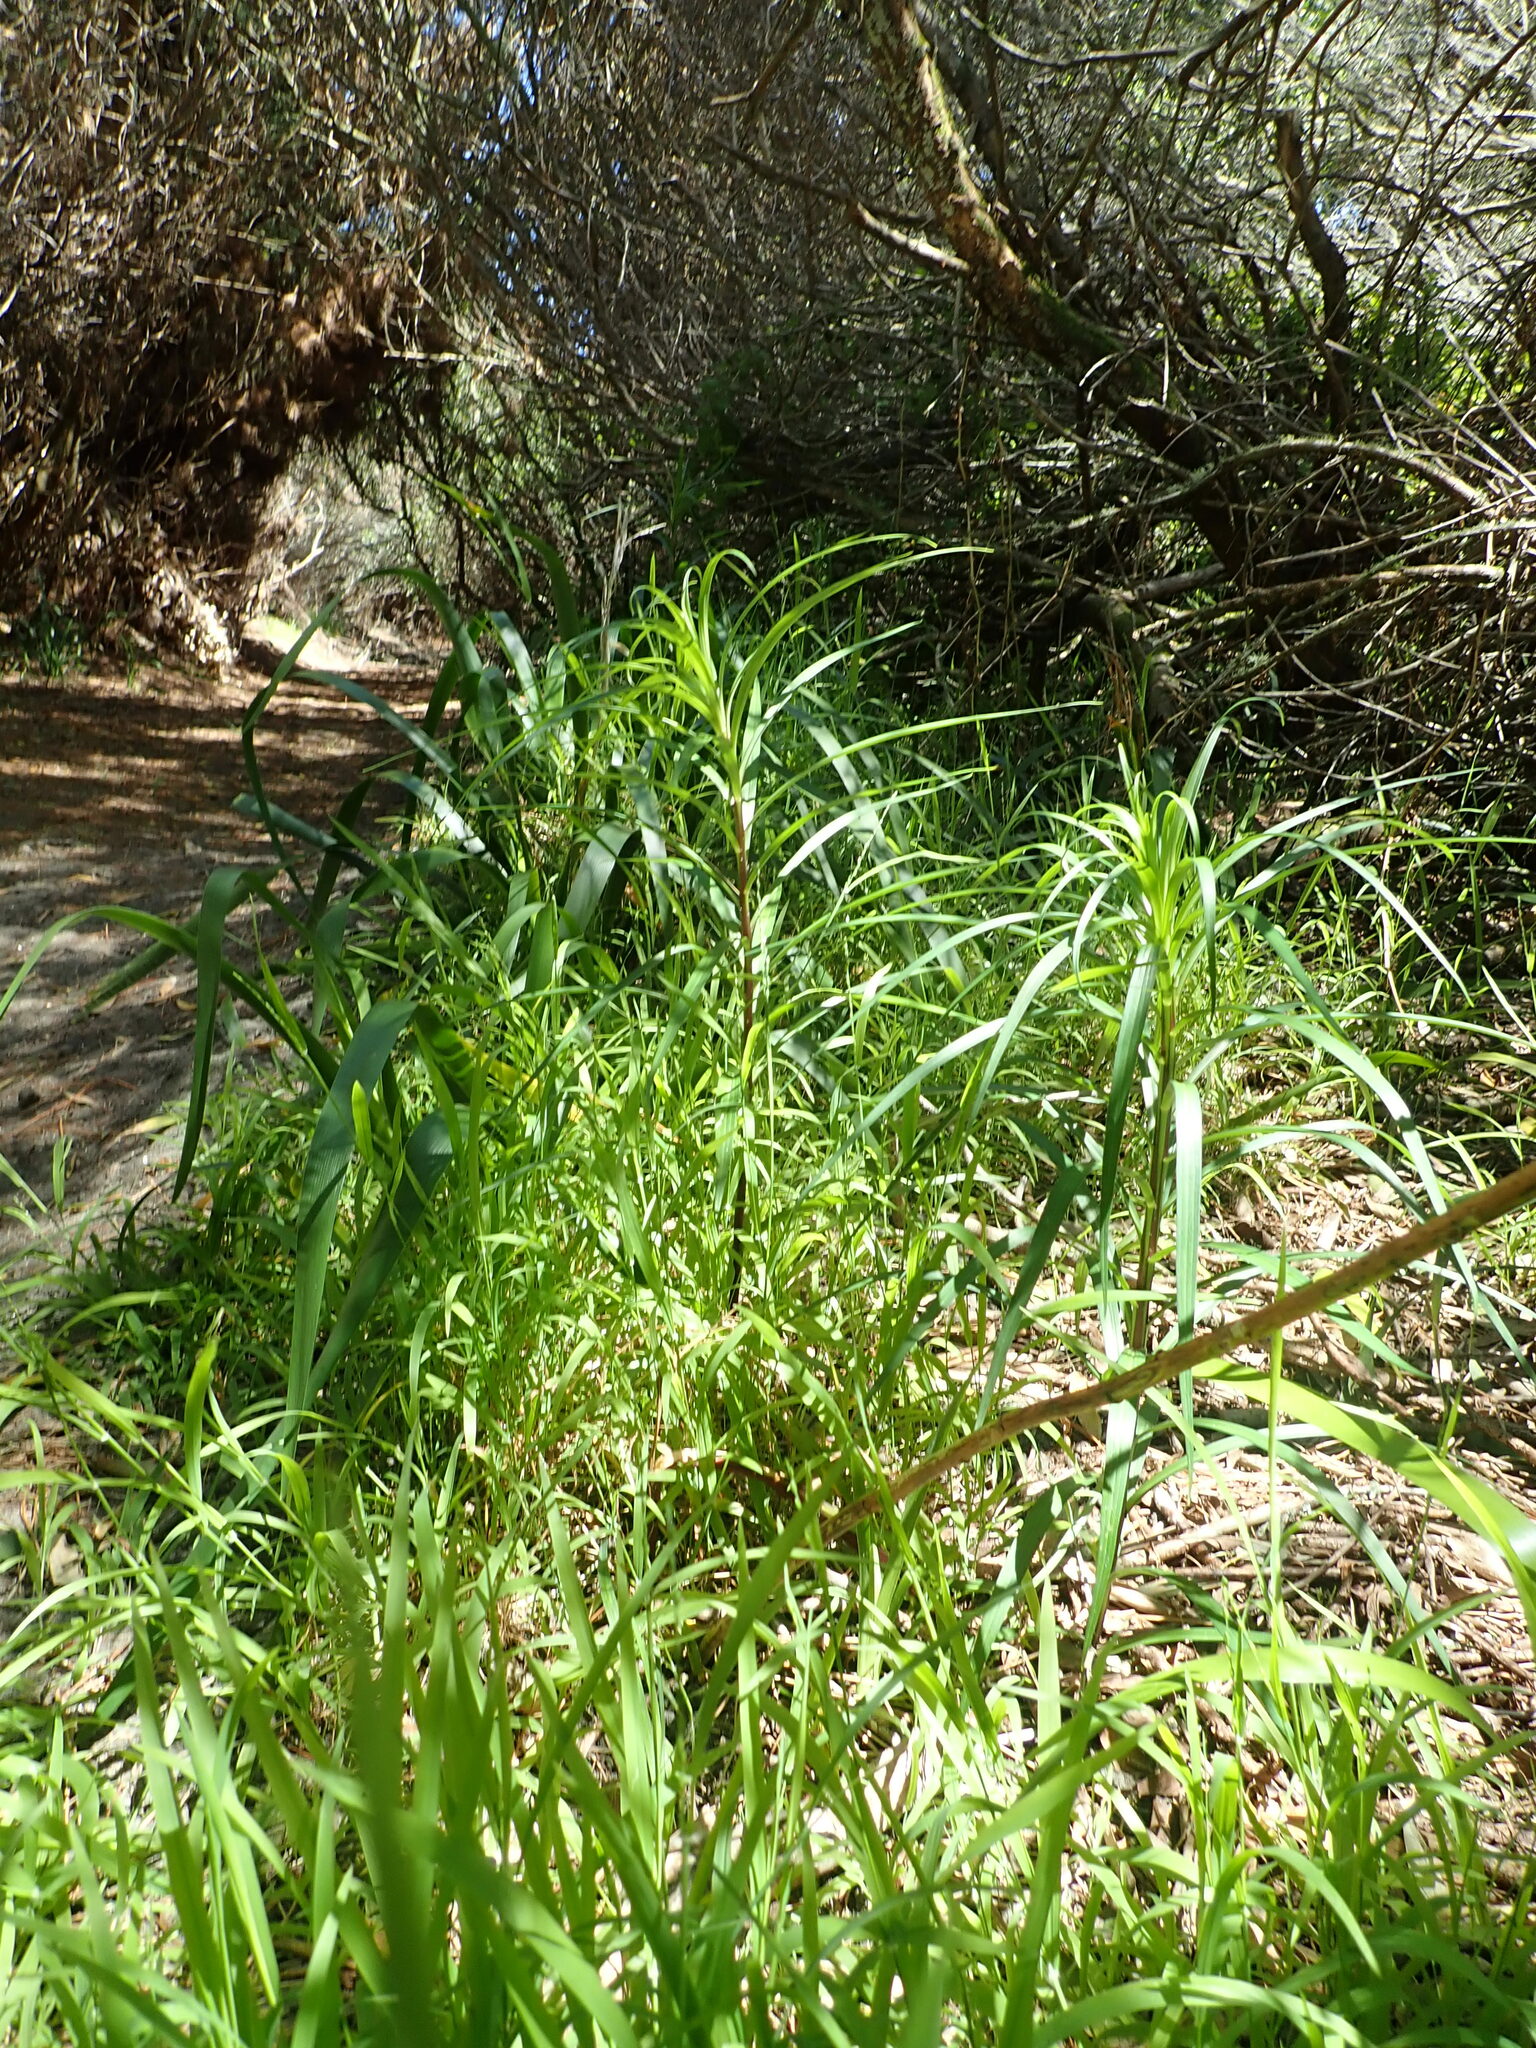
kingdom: Plantae
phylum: Tracheophyta
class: Liliopsida
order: Liliales
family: Liliaceae
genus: Lilium
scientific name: Lilium formosanum
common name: Formosa lily
